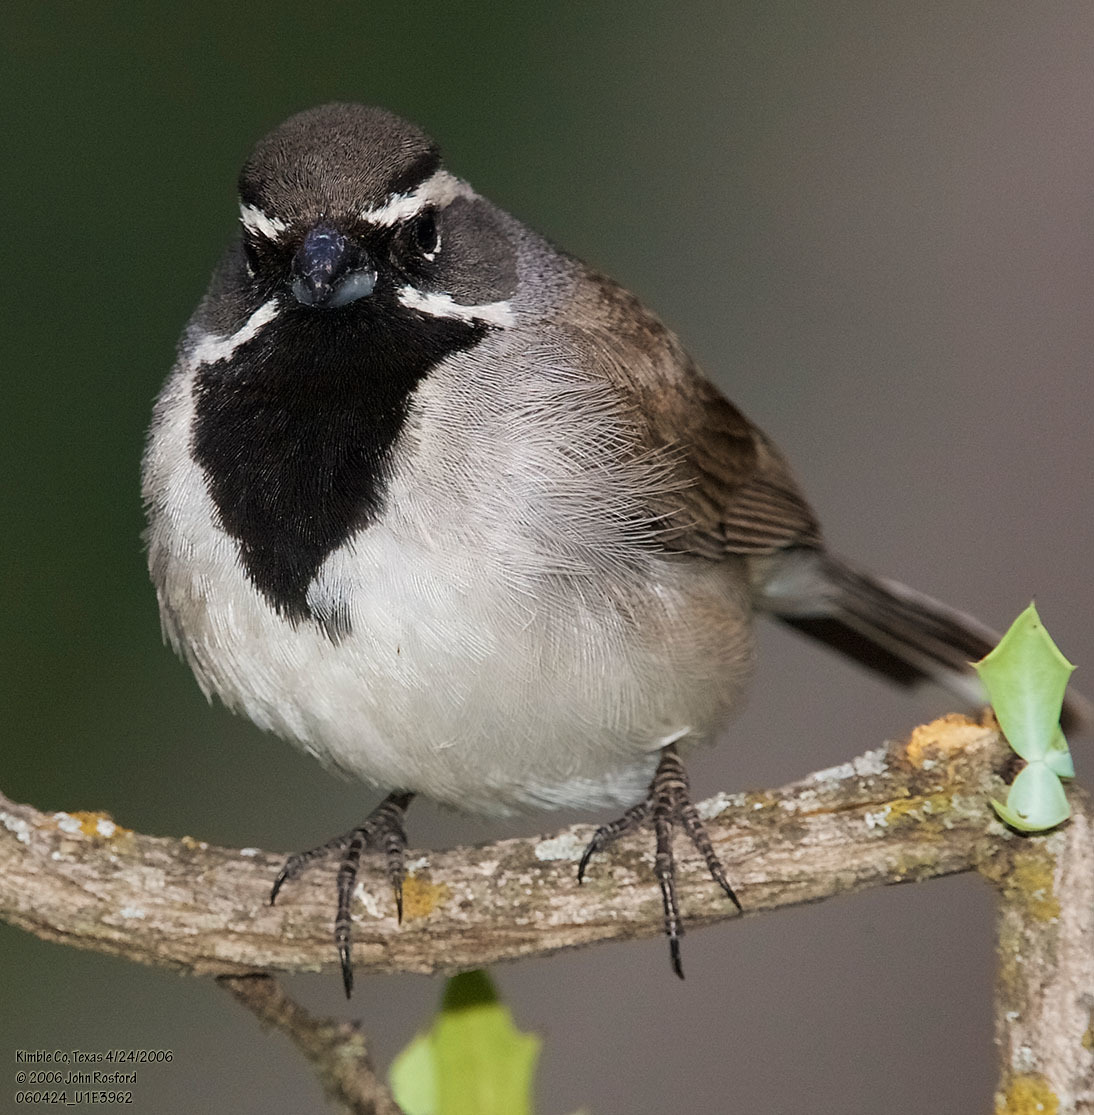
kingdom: Animalia
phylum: Chordata
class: Aves
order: Passeriformes
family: Passerellidae
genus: Amphispiza
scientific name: Amphispiza bilineata
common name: Black-throated sparrow
